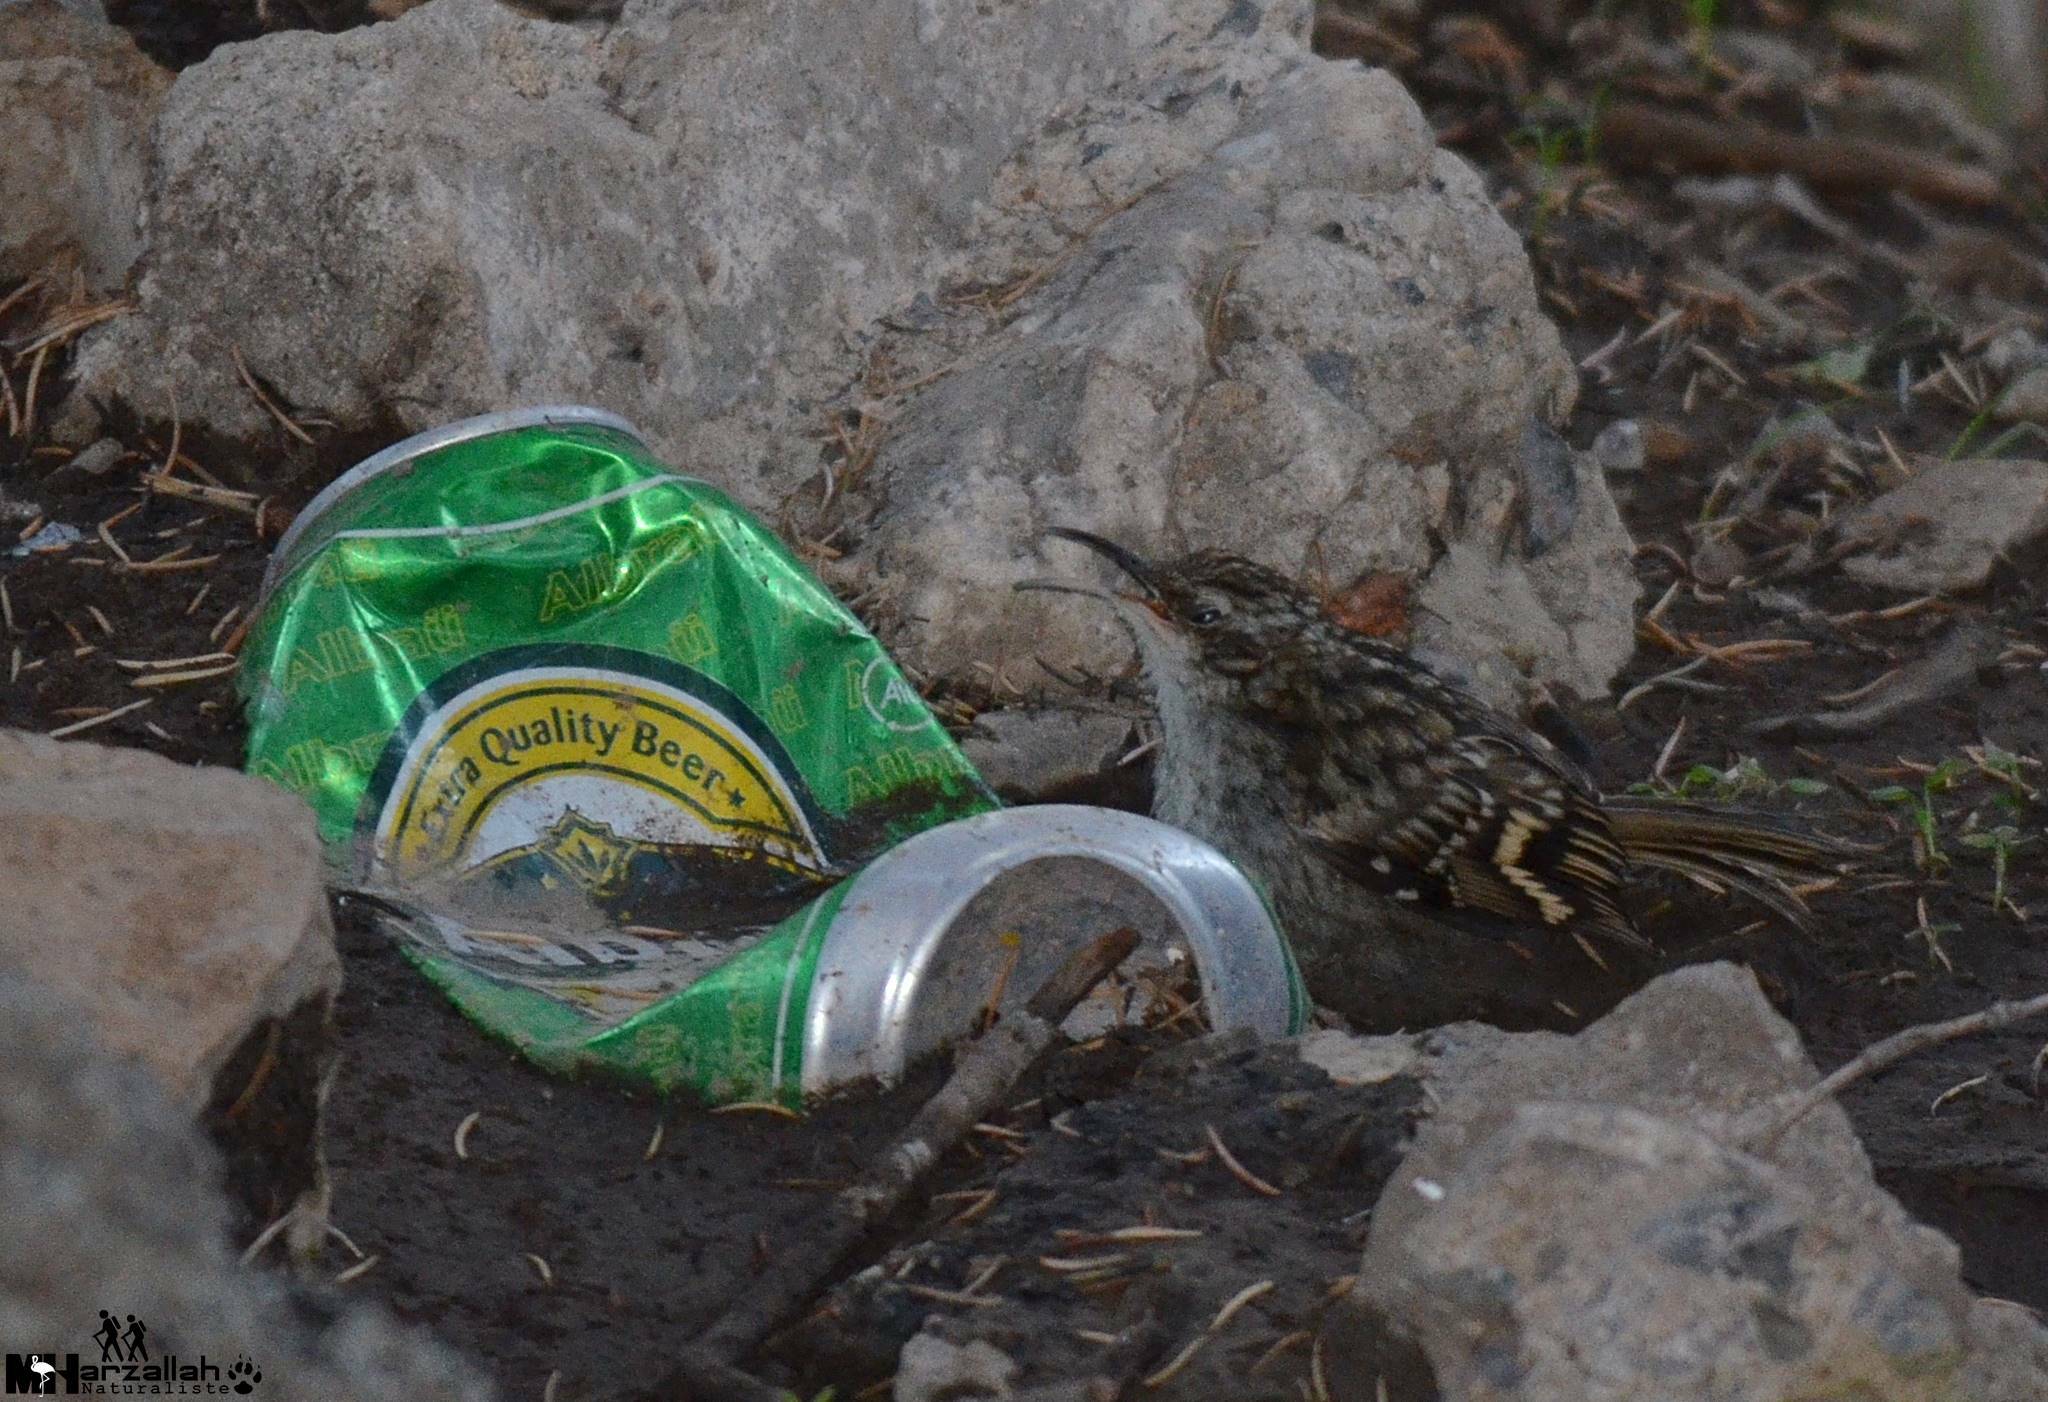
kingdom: Animalia
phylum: Chordata
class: Aves
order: Passeriformes
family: Certhiidae
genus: Certhia
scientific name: Certhia brachydactyla
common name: Short-toed treecreeper
